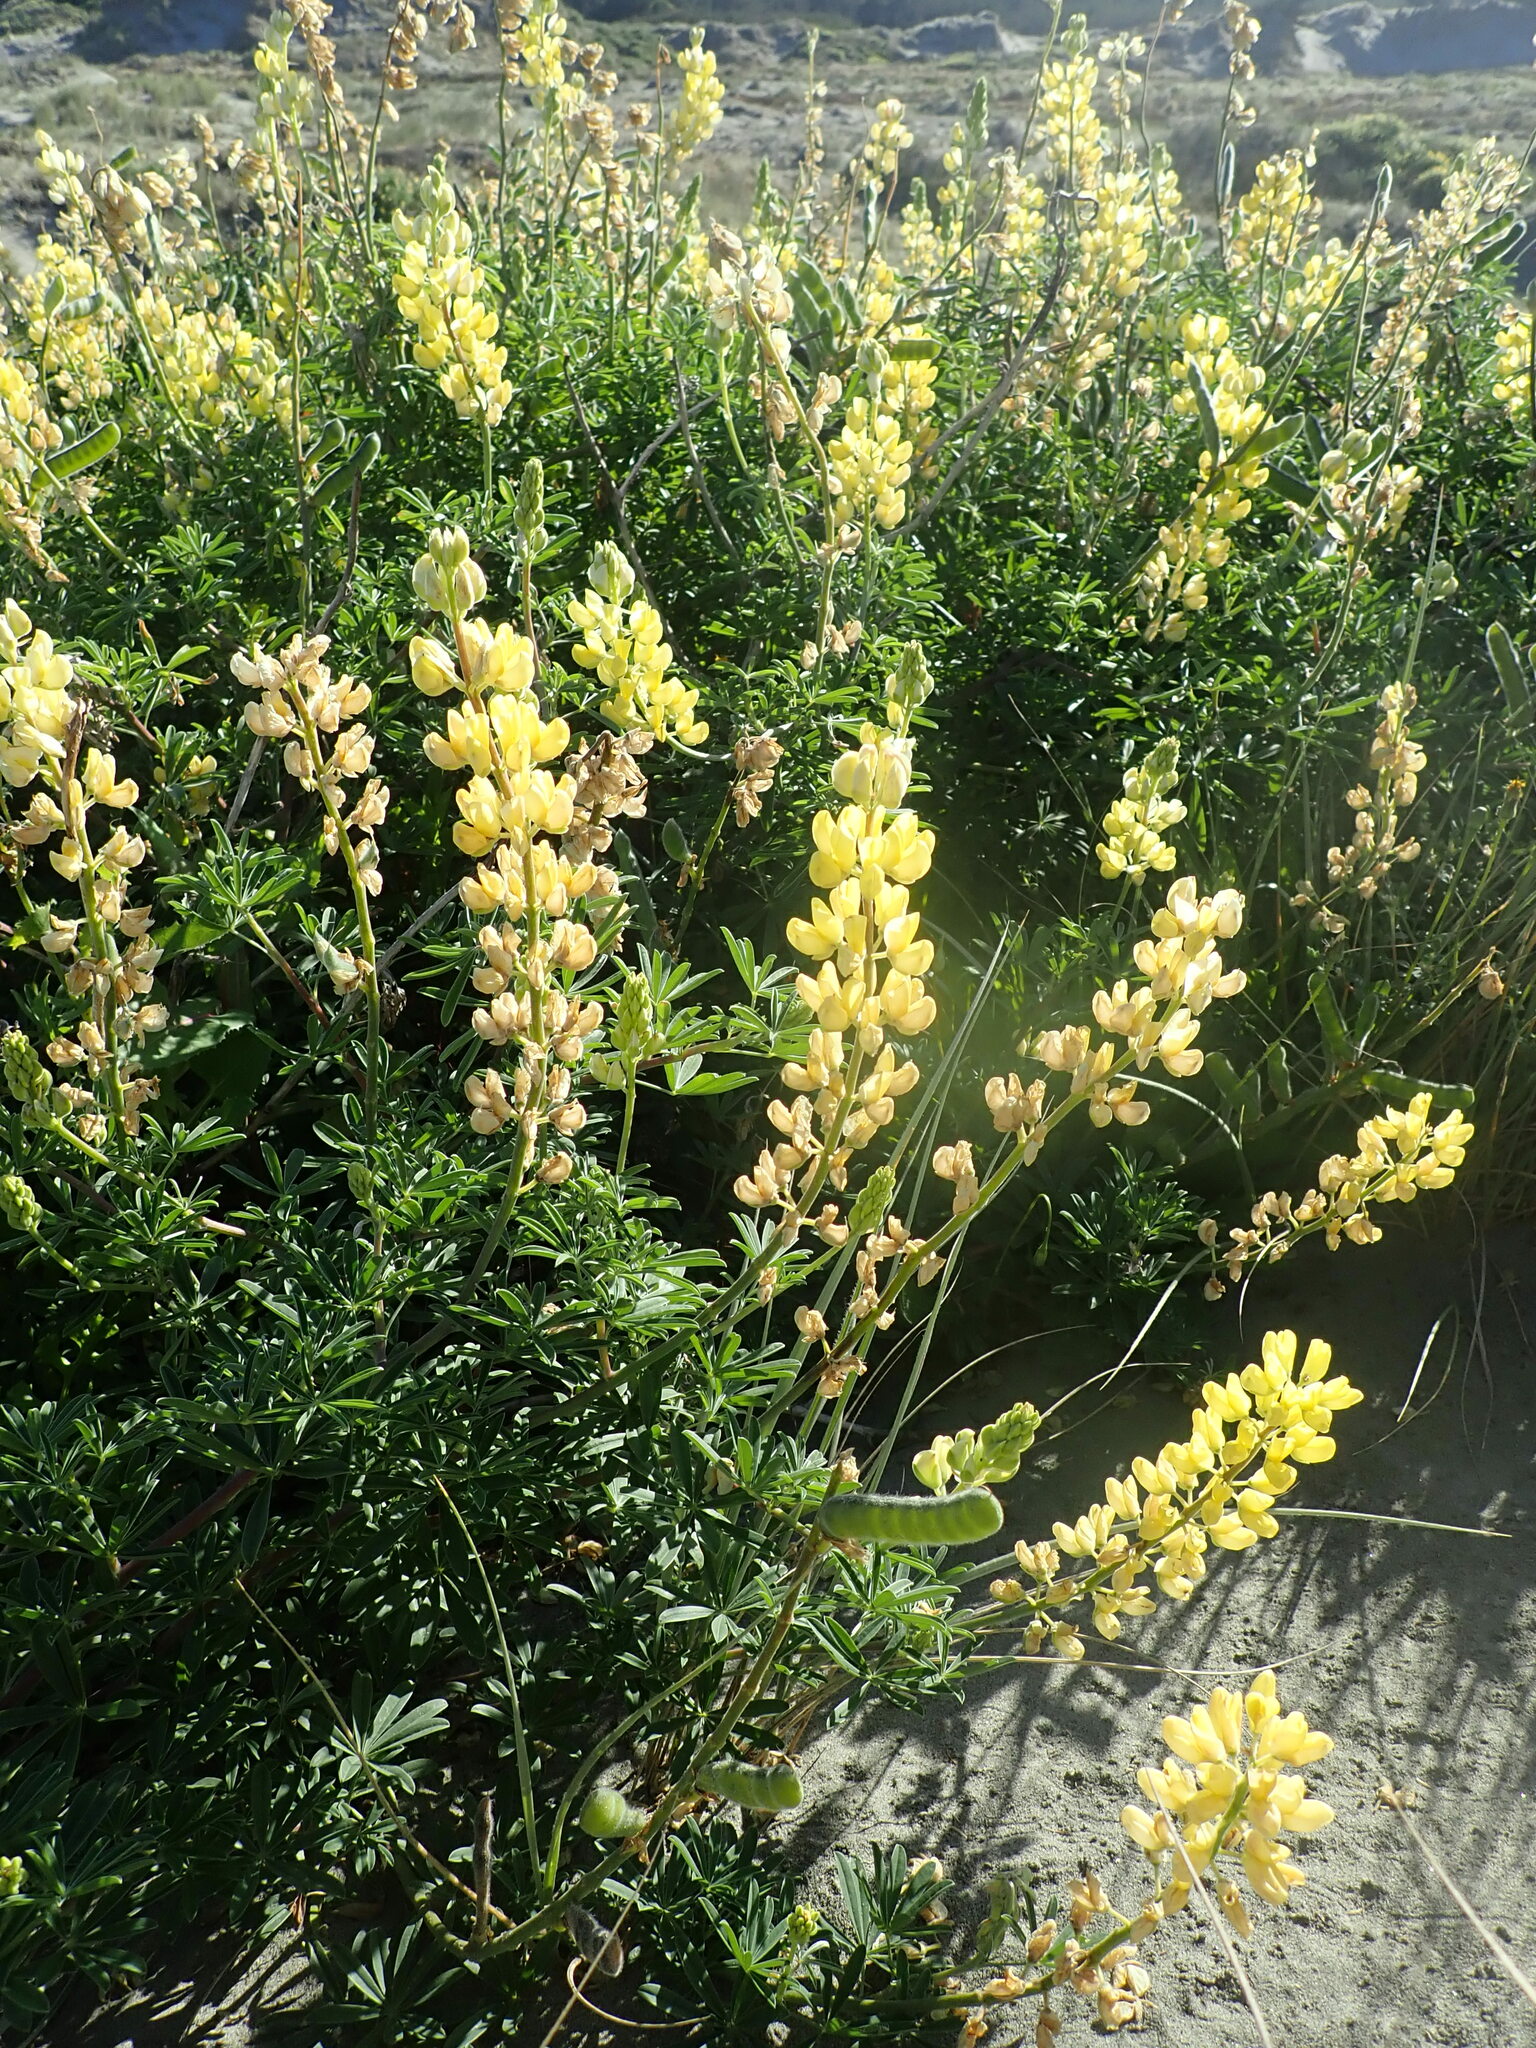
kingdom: Plantae
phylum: Tracheophyta
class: Magnoliopsida
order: Fabales
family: Fabaceae
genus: Lupinus
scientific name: Lupinus arboreus
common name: Yellow bush lupine
